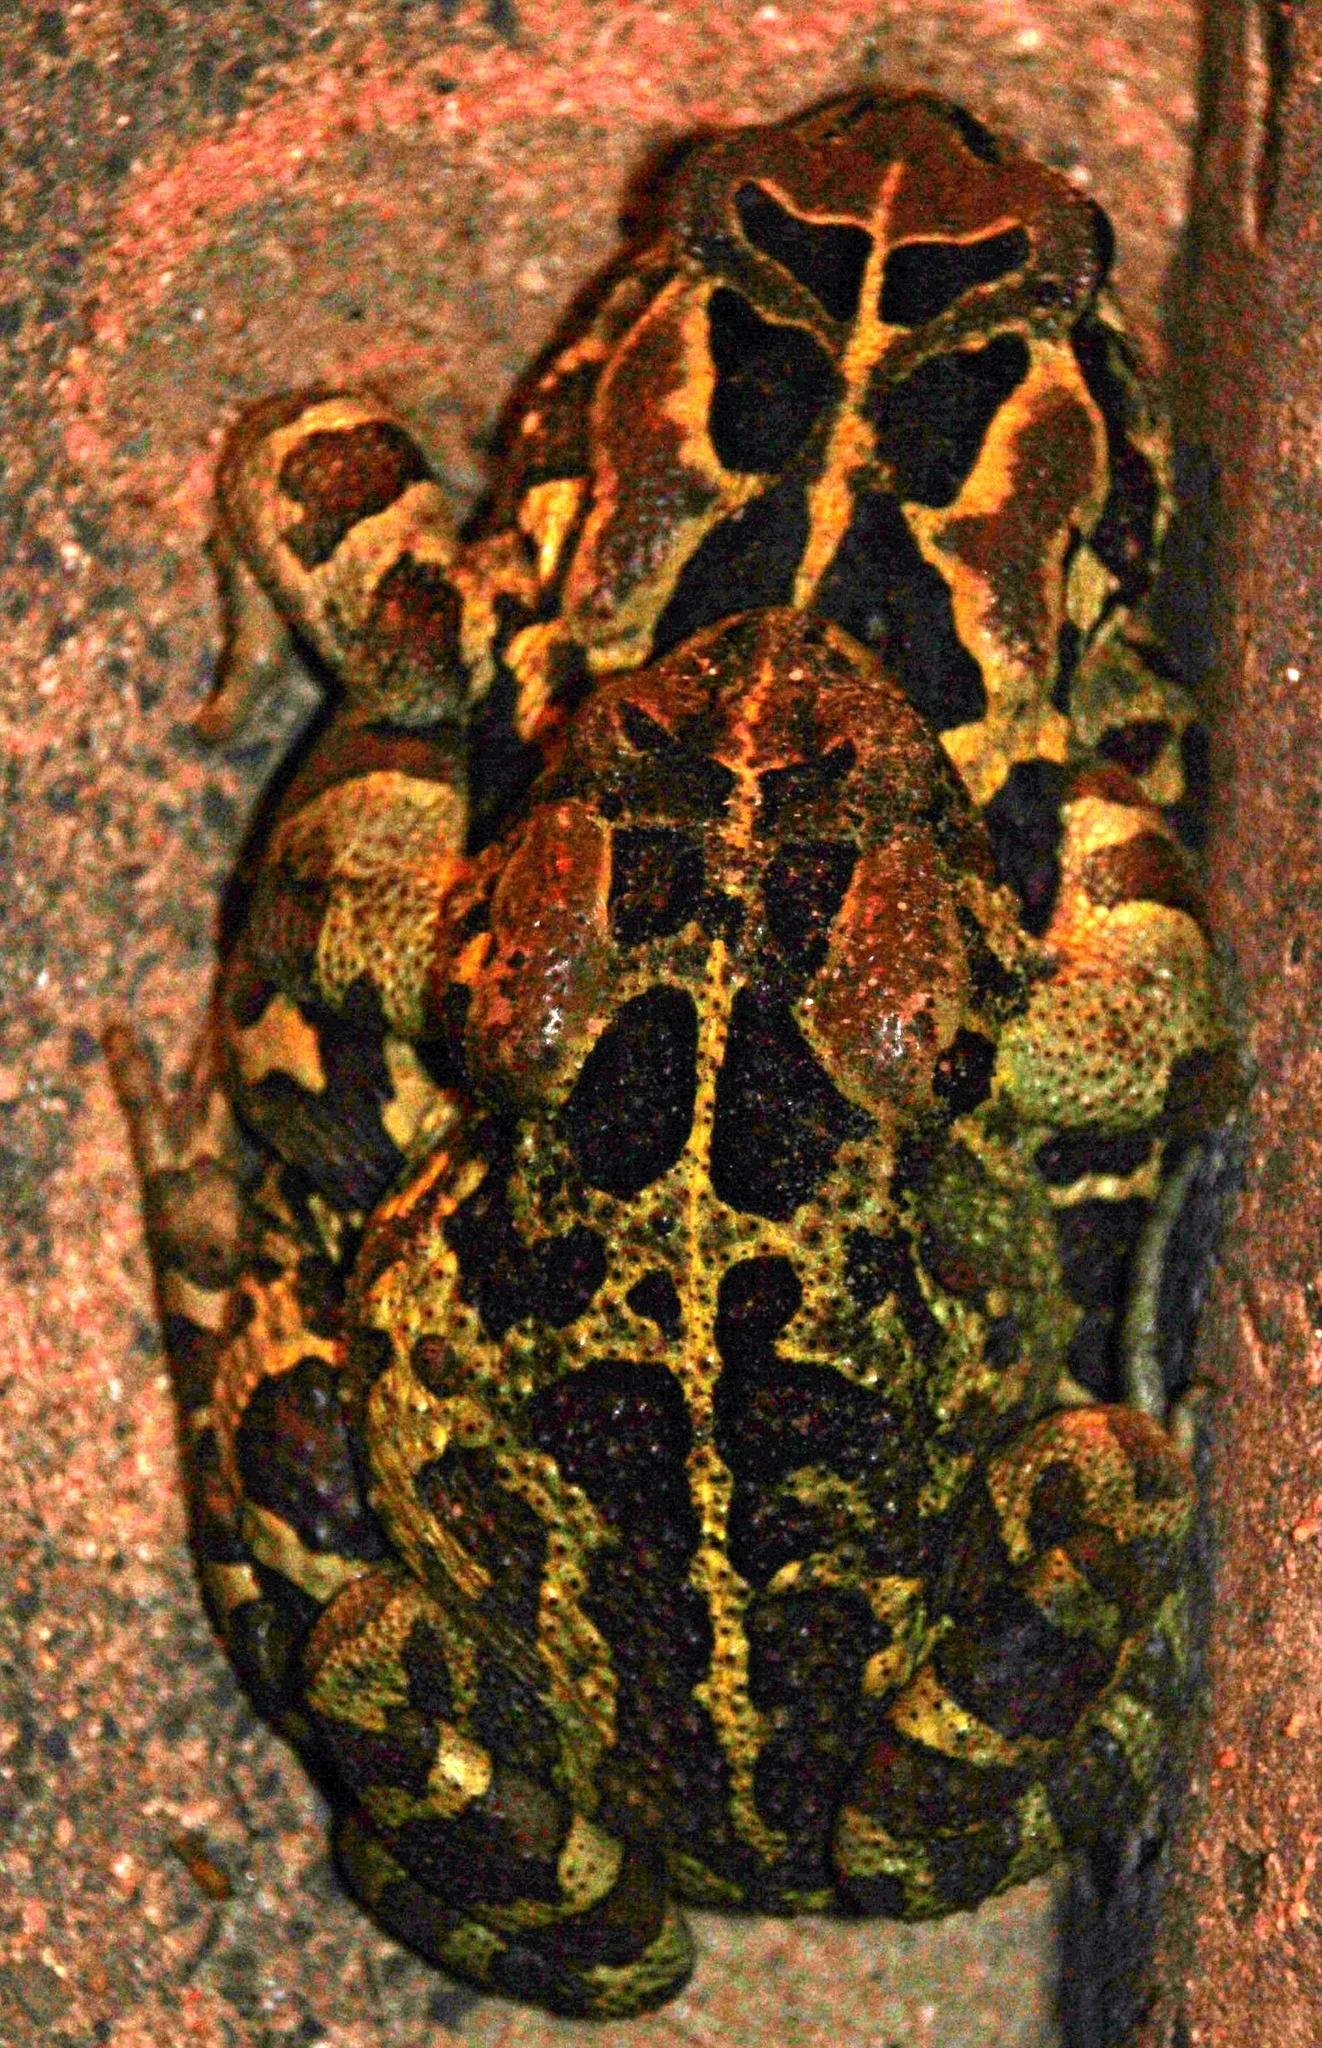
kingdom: Animalia
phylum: Chordata
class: Amphibia
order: Anura
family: Bufonidae
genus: Sclerophrys
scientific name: Sclerophrys pantherina
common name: Panther toad
